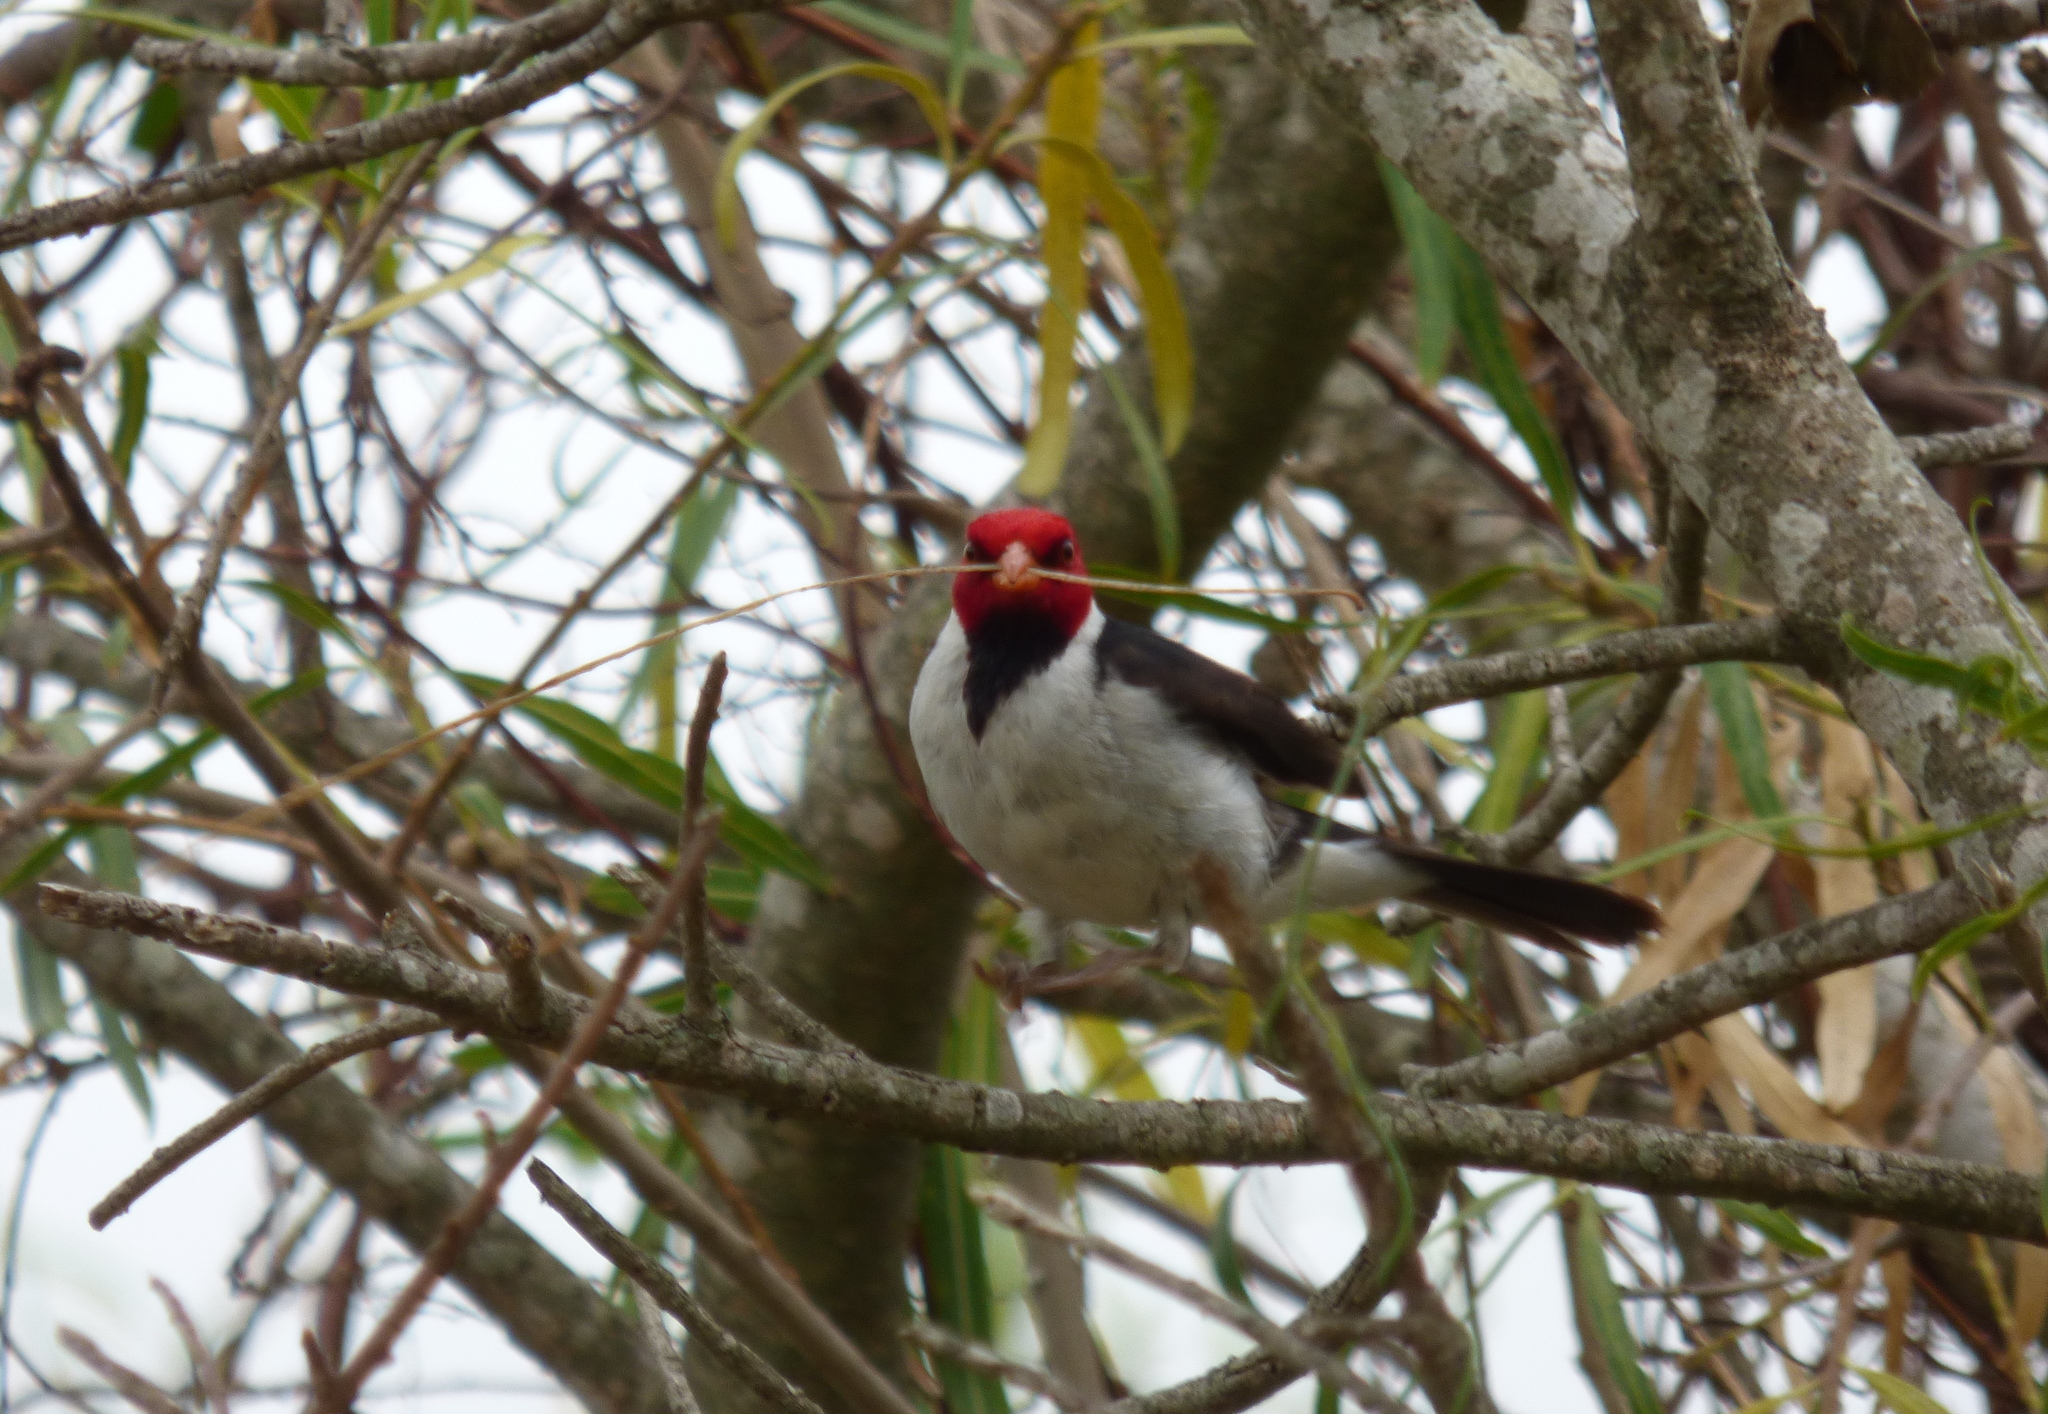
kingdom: Animalia
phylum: Chordata
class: Aves
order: Passeriformes
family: Thraupidae
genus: Paroaria
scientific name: Paroaria capitata
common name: Yellow-billed cardinal
